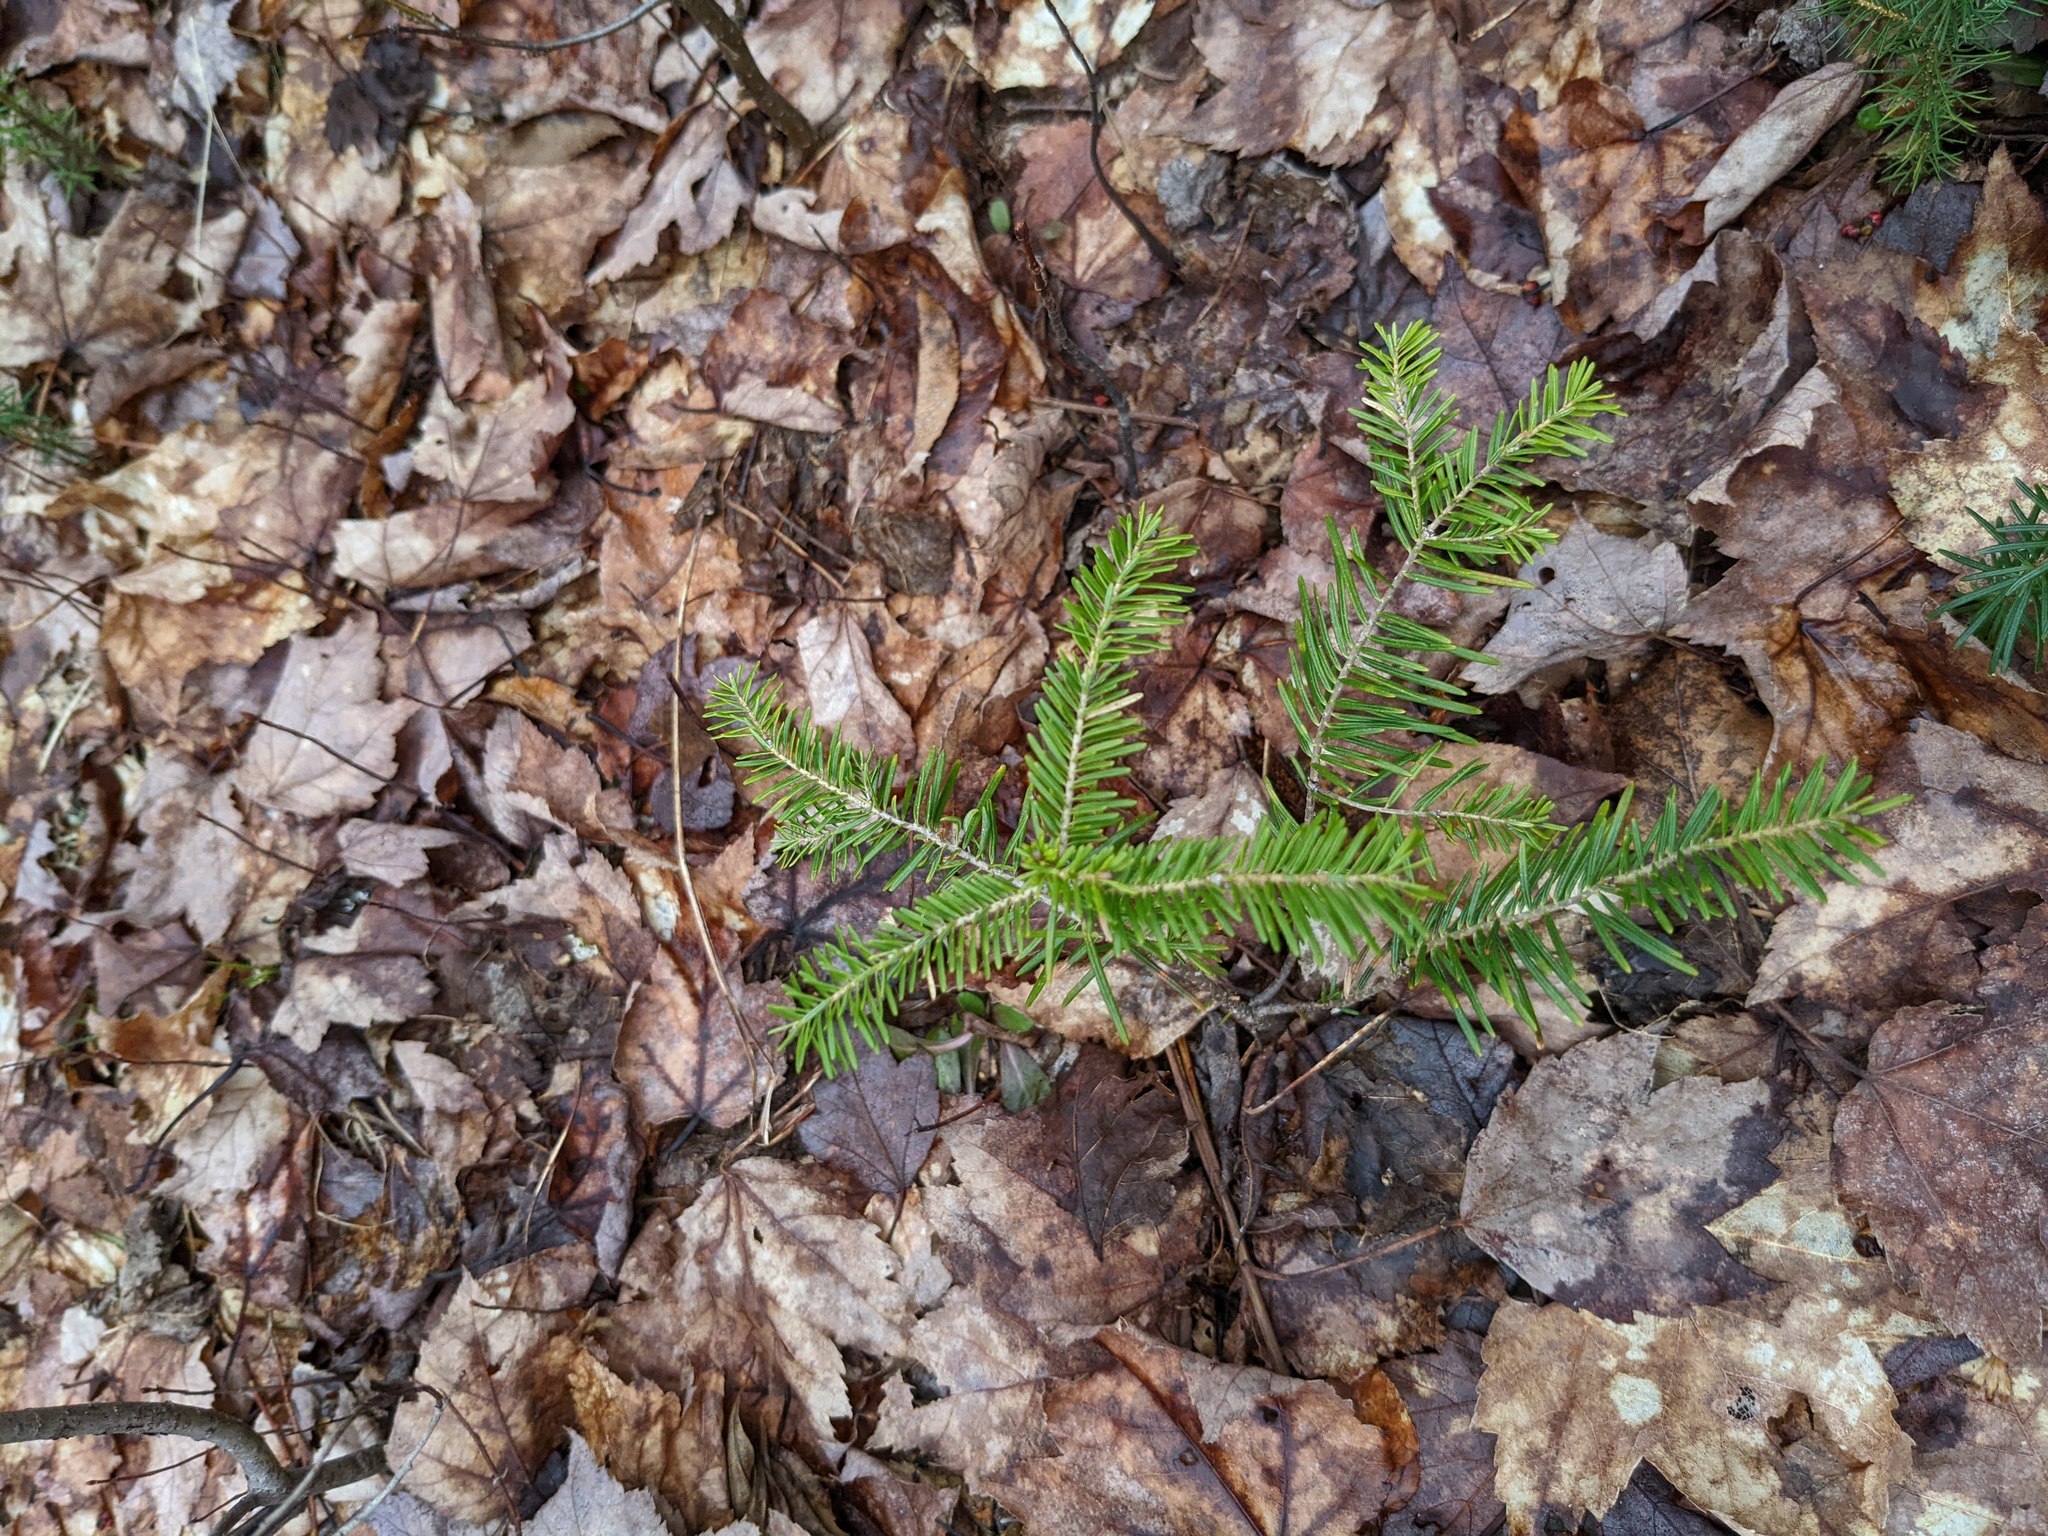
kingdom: Plantae
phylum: Tracheophyta
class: Pinopsida
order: Pinales
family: Pinaceae
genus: Abies
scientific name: Abies balsamea
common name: Balsam fir
